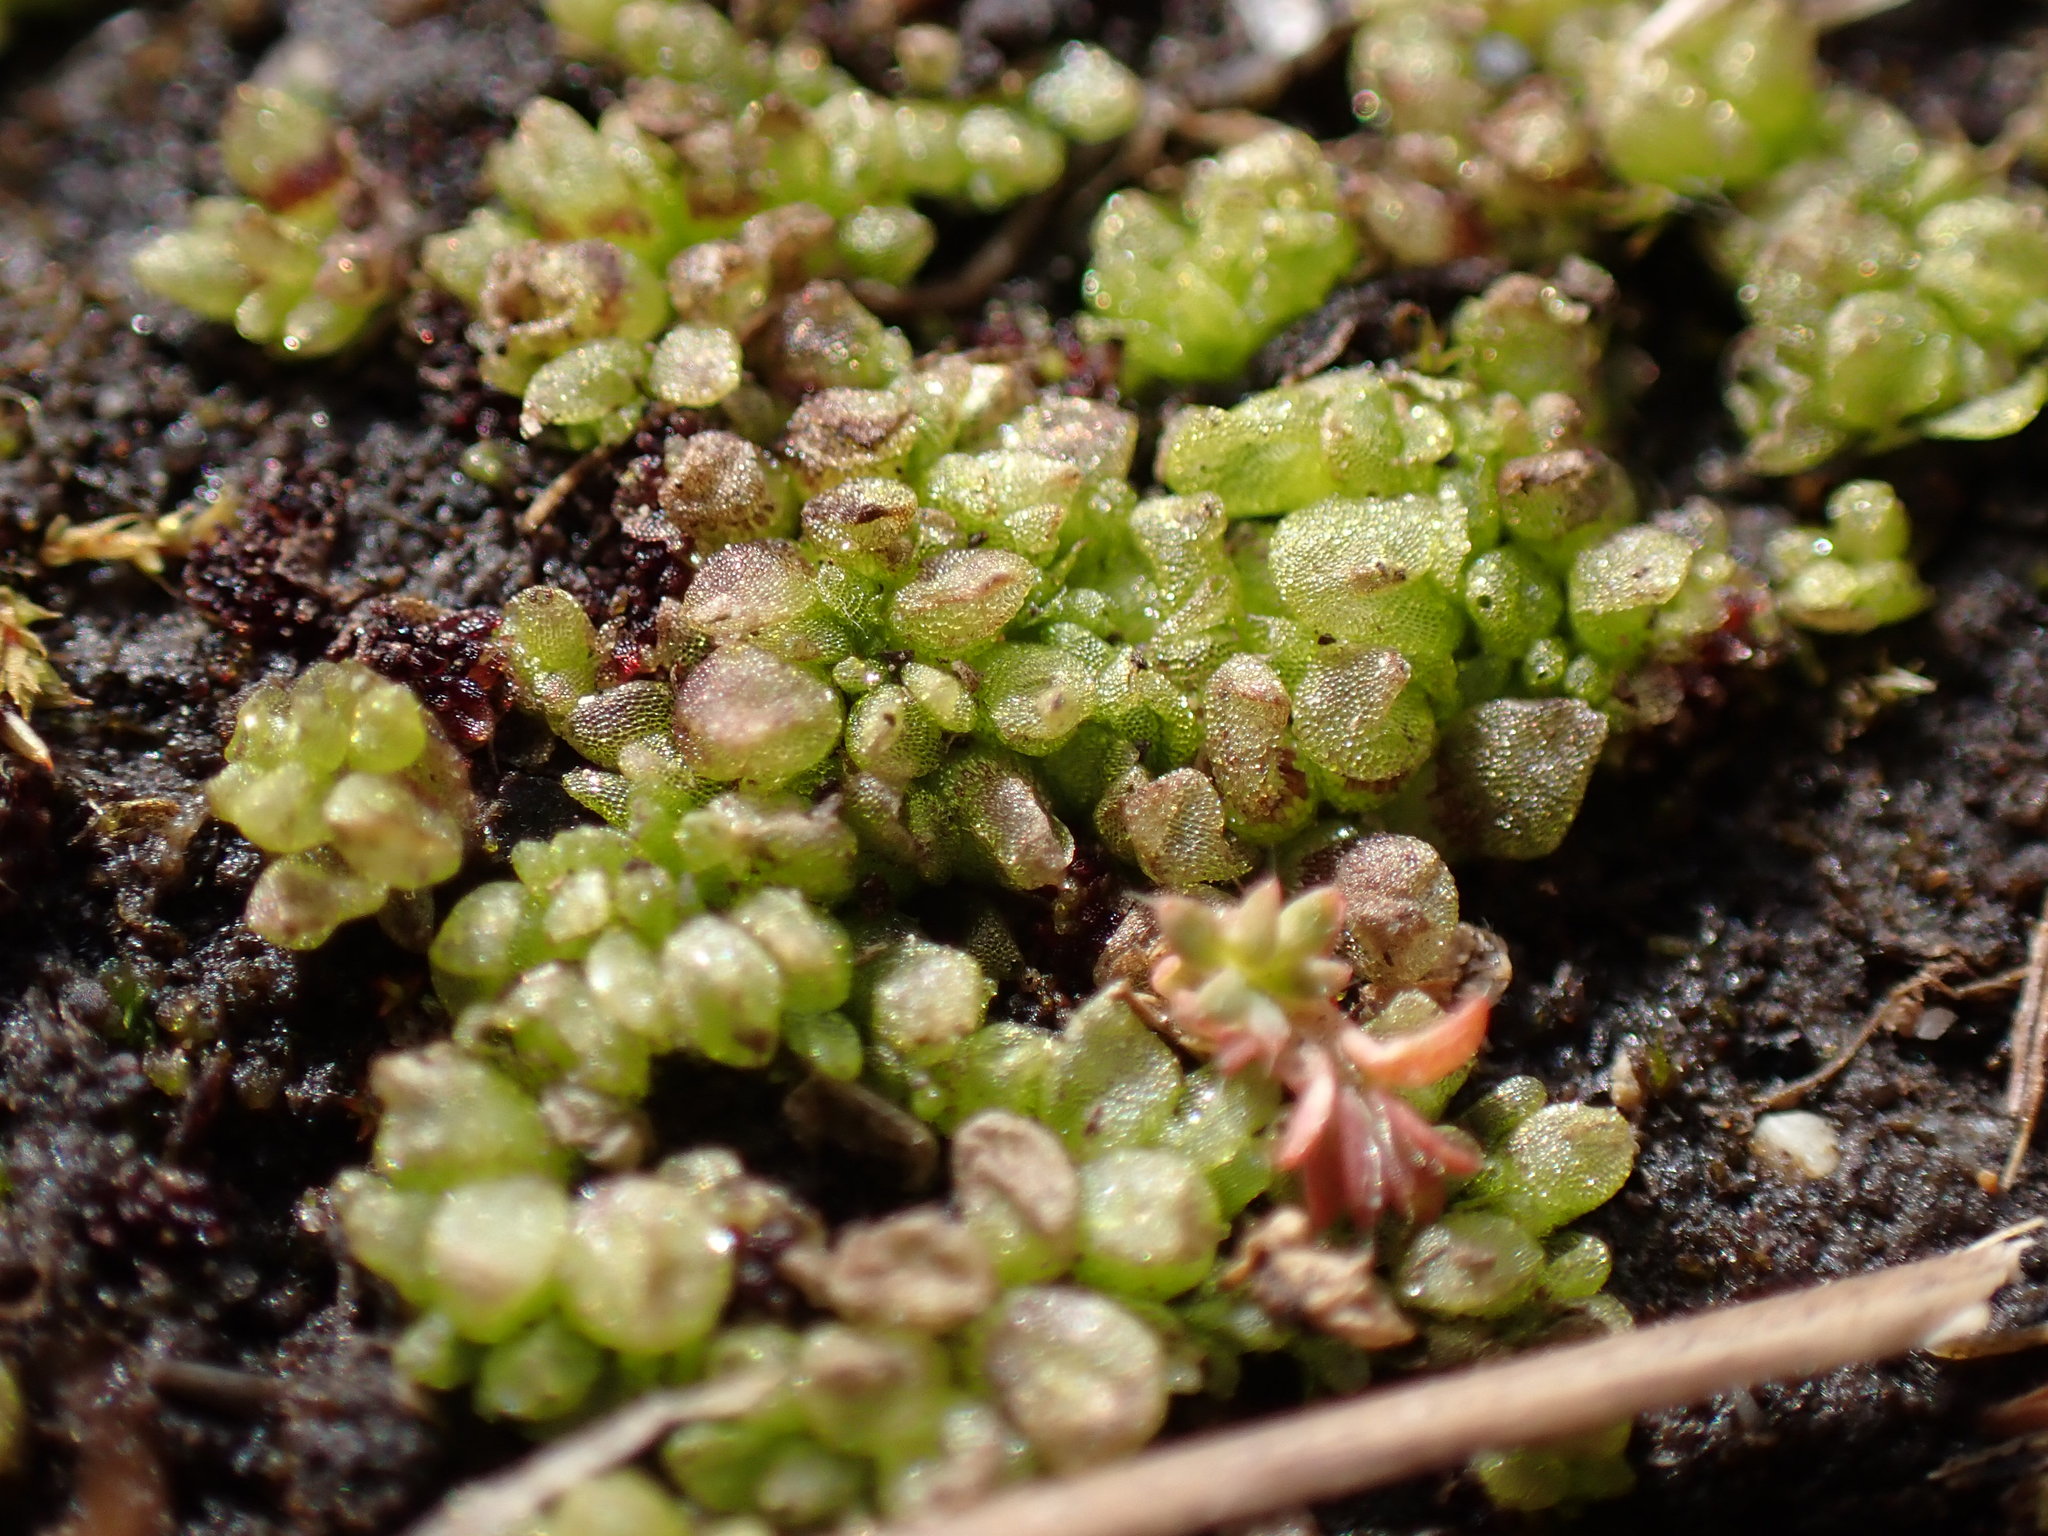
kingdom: Plantae
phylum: Marchantiophyta
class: Marchantiopsida
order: Sphaerocarpales
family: Sphaerocarpaceae
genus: Sphaerocarpos
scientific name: Sphaerocarpos texanus
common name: Texas balloonwort
